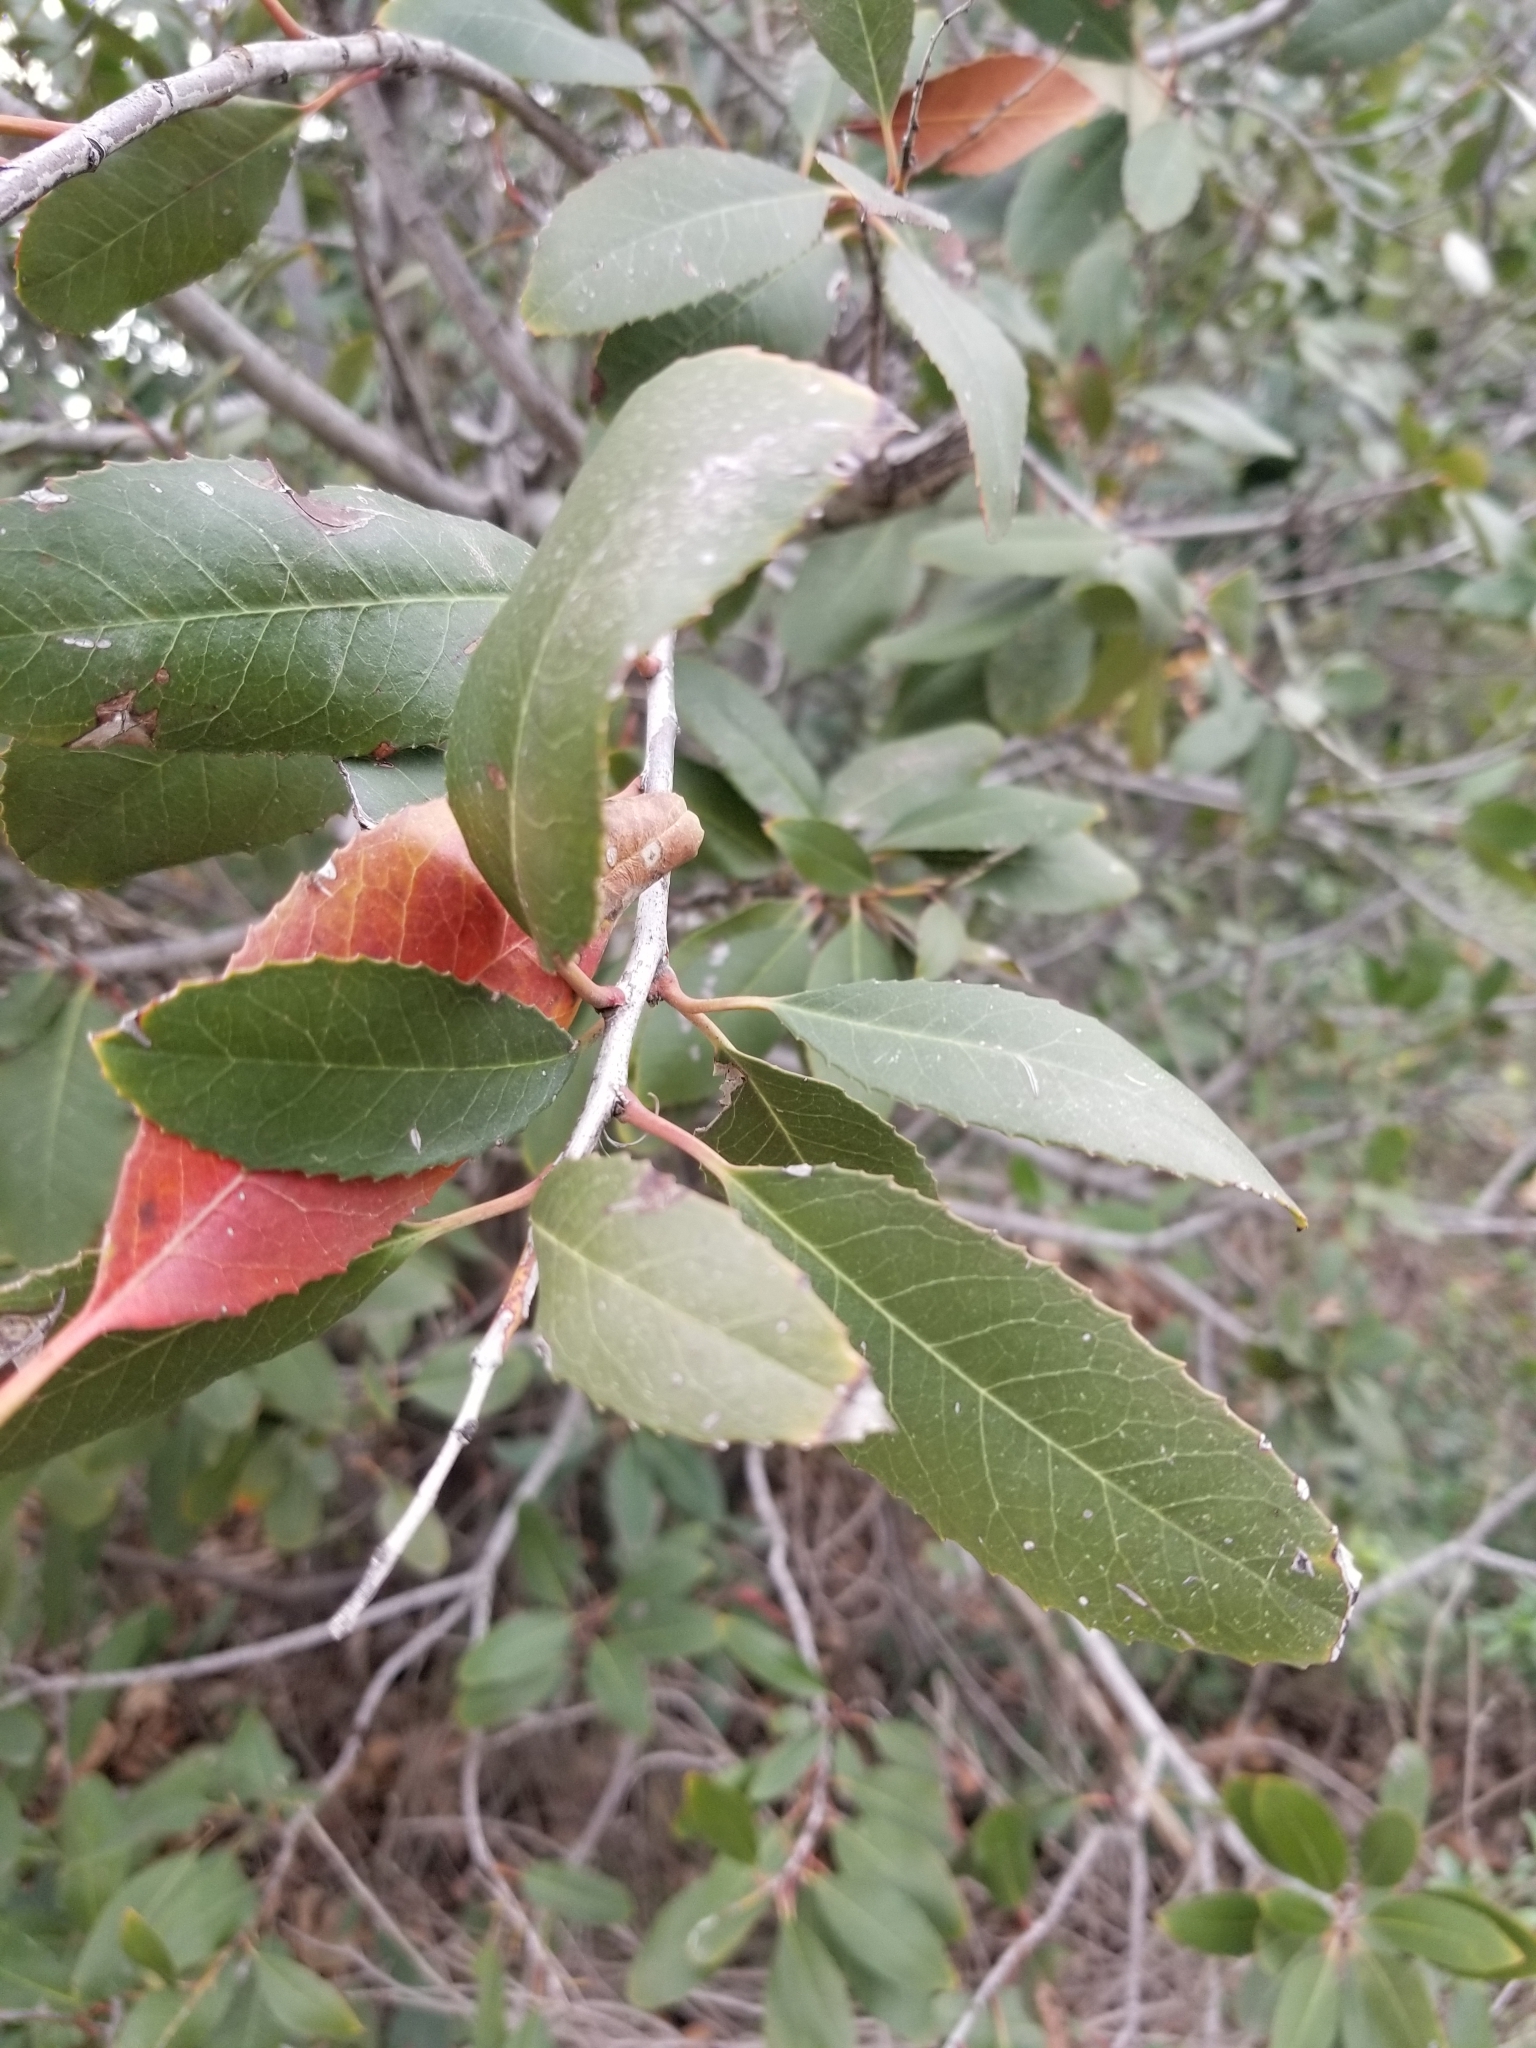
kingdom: Plantae
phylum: Tracheophyta
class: Magnoliopsida
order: Rosales
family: Rosaceae
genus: Heteromeles
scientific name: Heteromeles arbutifolia
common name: California-holly
